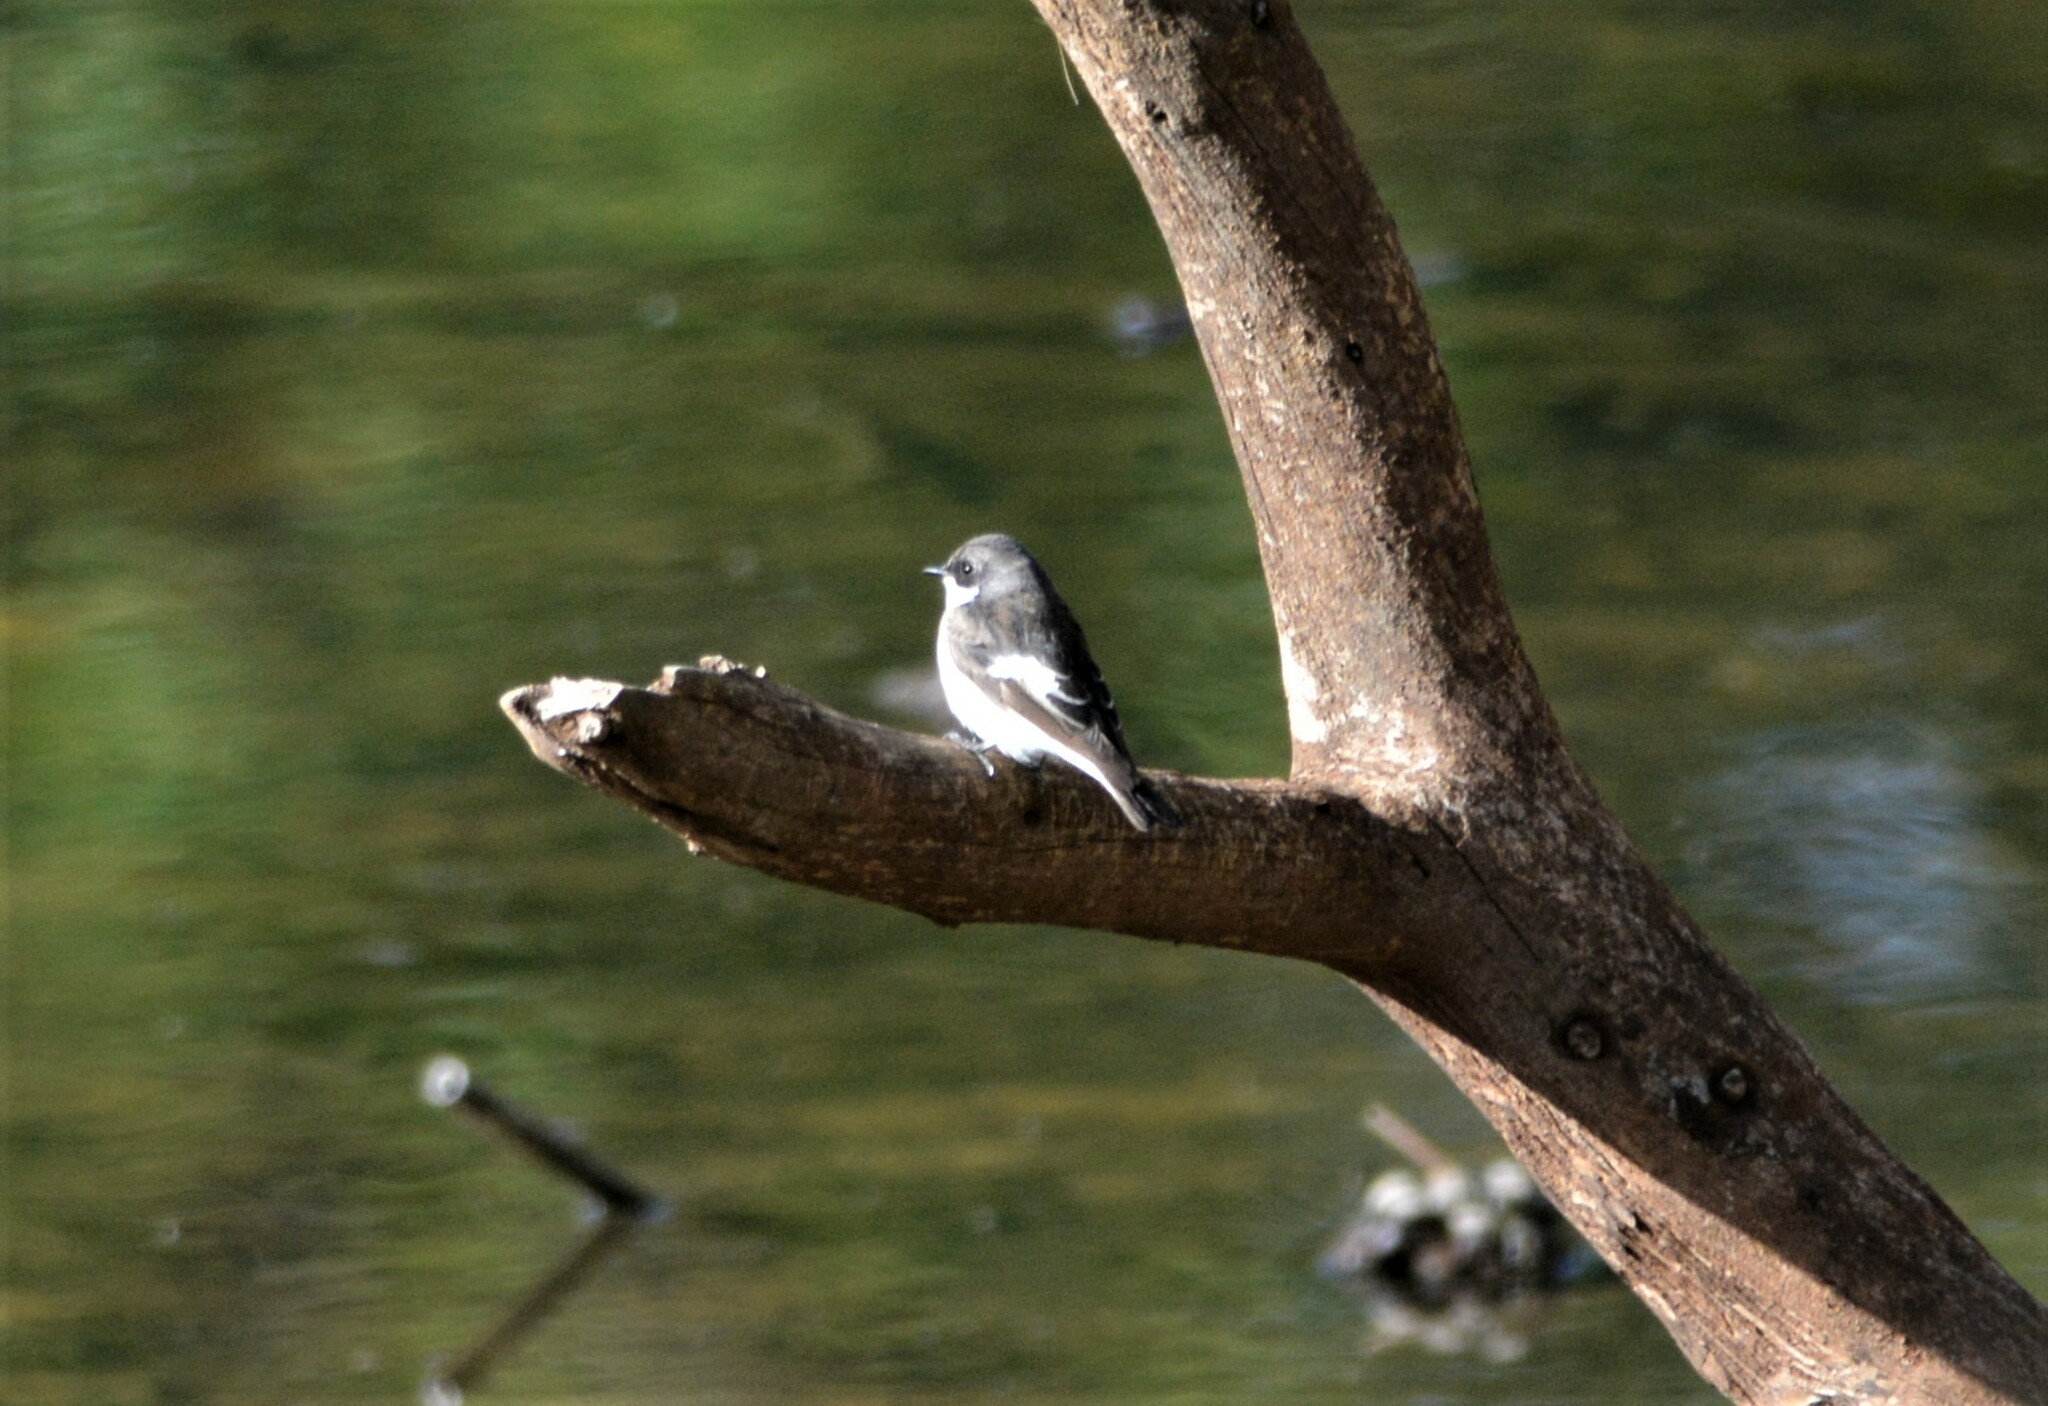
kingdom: Animalia
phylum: Chordata
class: Aves
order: Passeriformes
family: Muscicapidae
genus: Ficedula
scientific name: Ficedula hypoleuca
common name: European pied flycatcher
